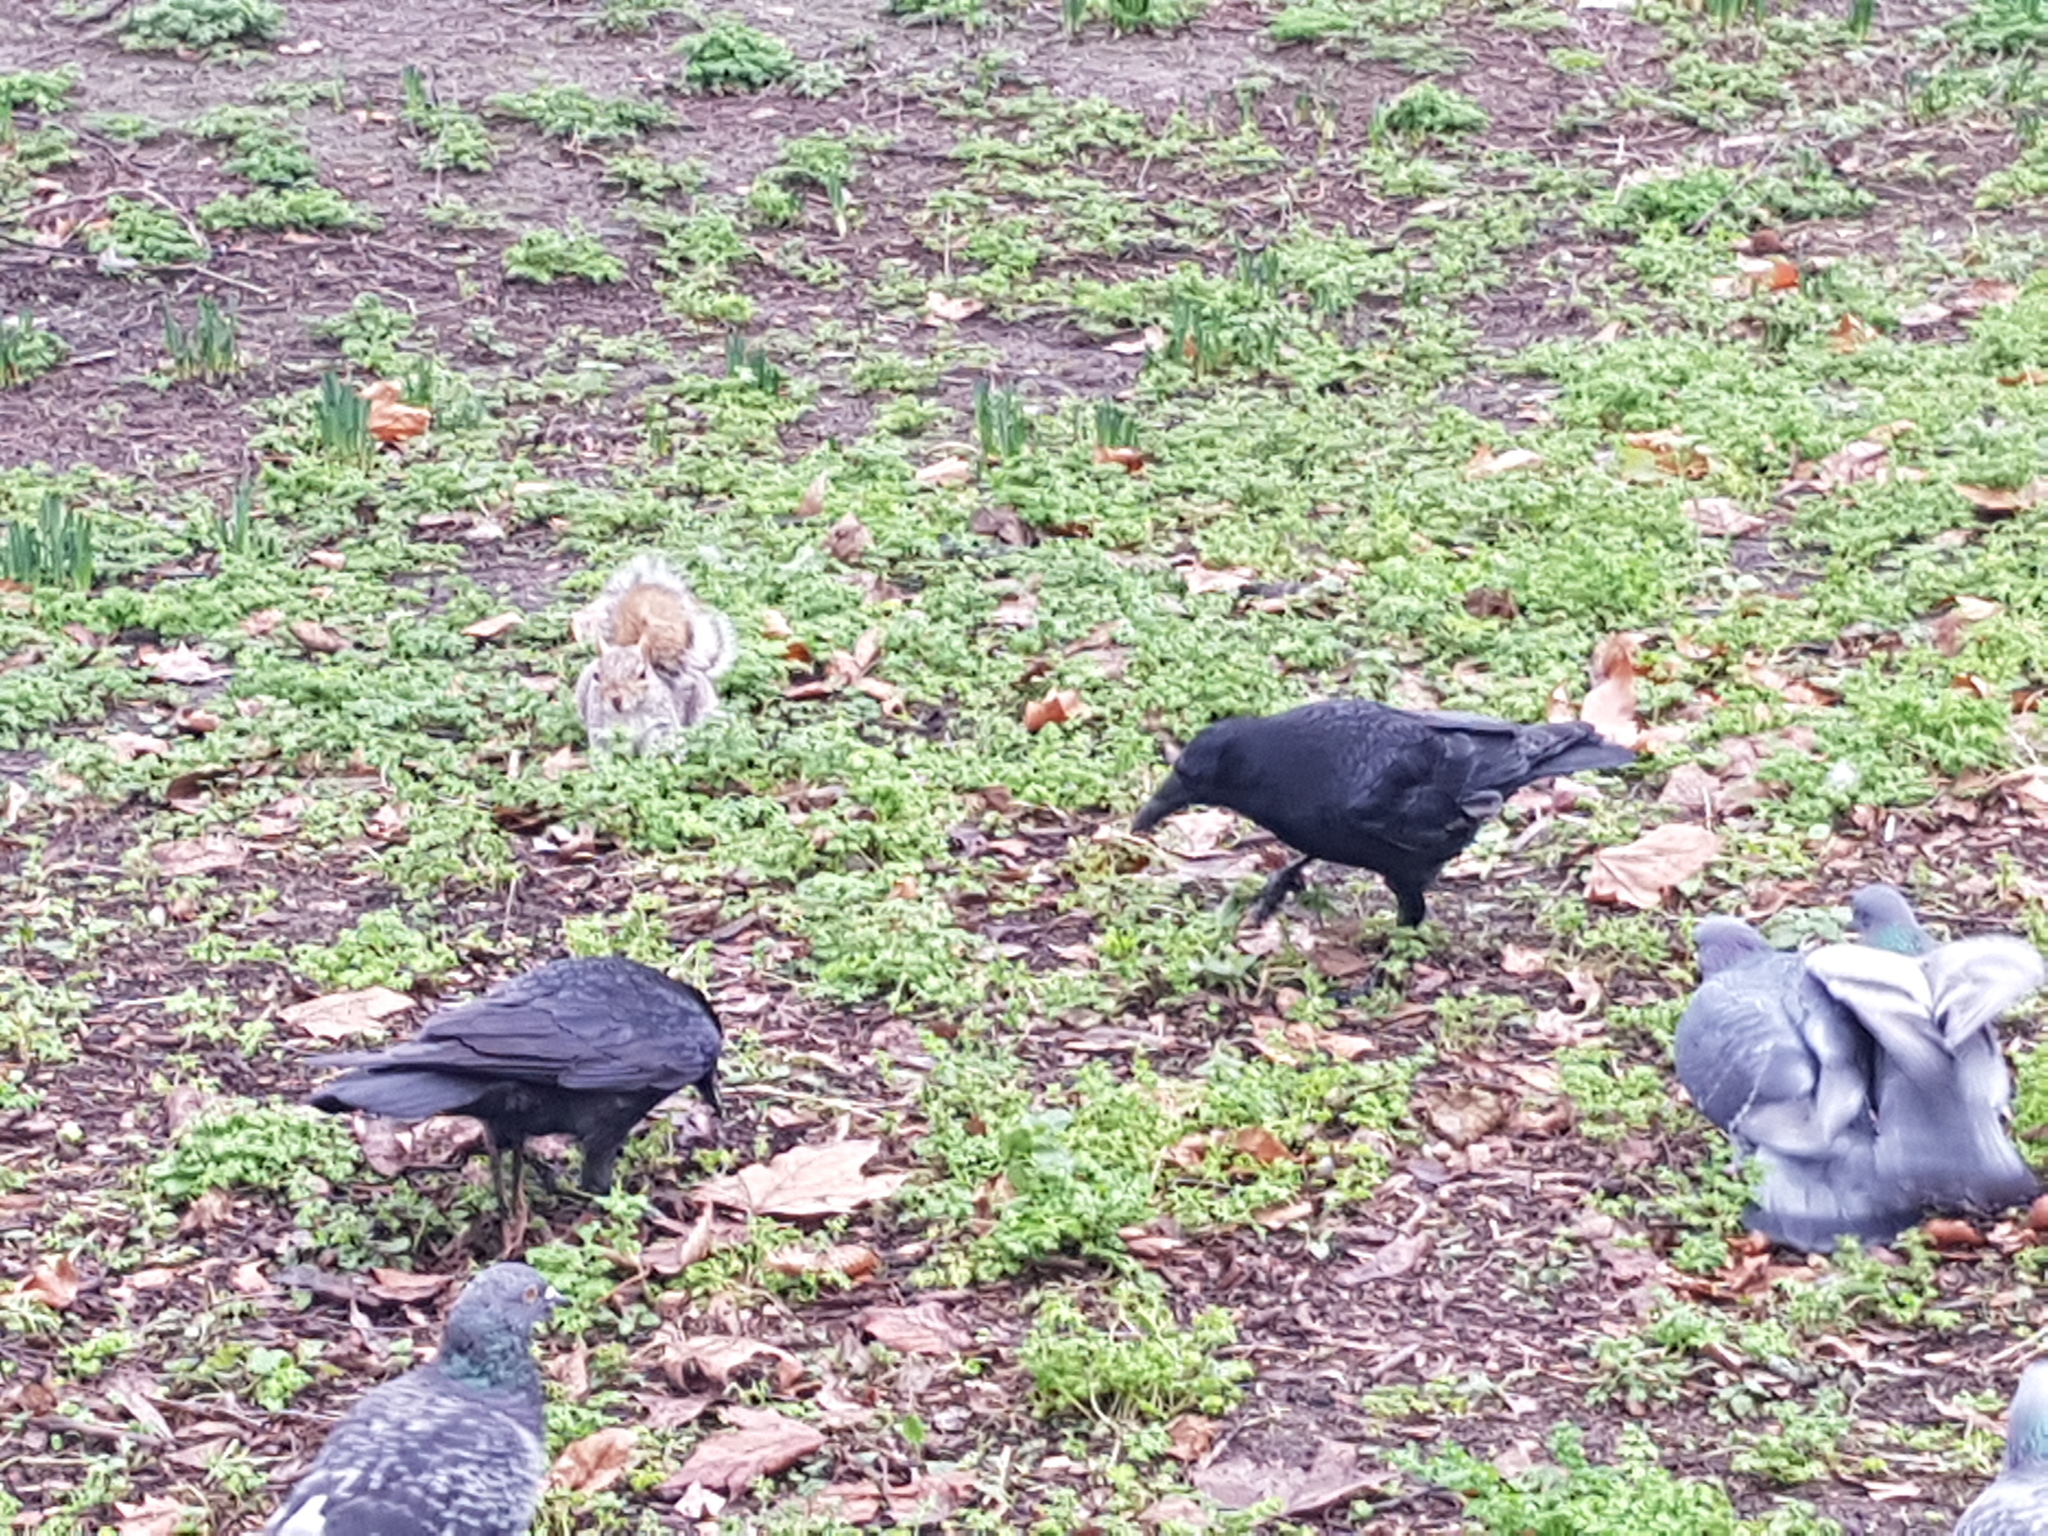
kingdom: Animalia
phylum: Chordata
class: Aves
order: Passeriformes
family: Corvidae
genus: Corvus
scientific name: Corvus corone
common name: Carrion crow
